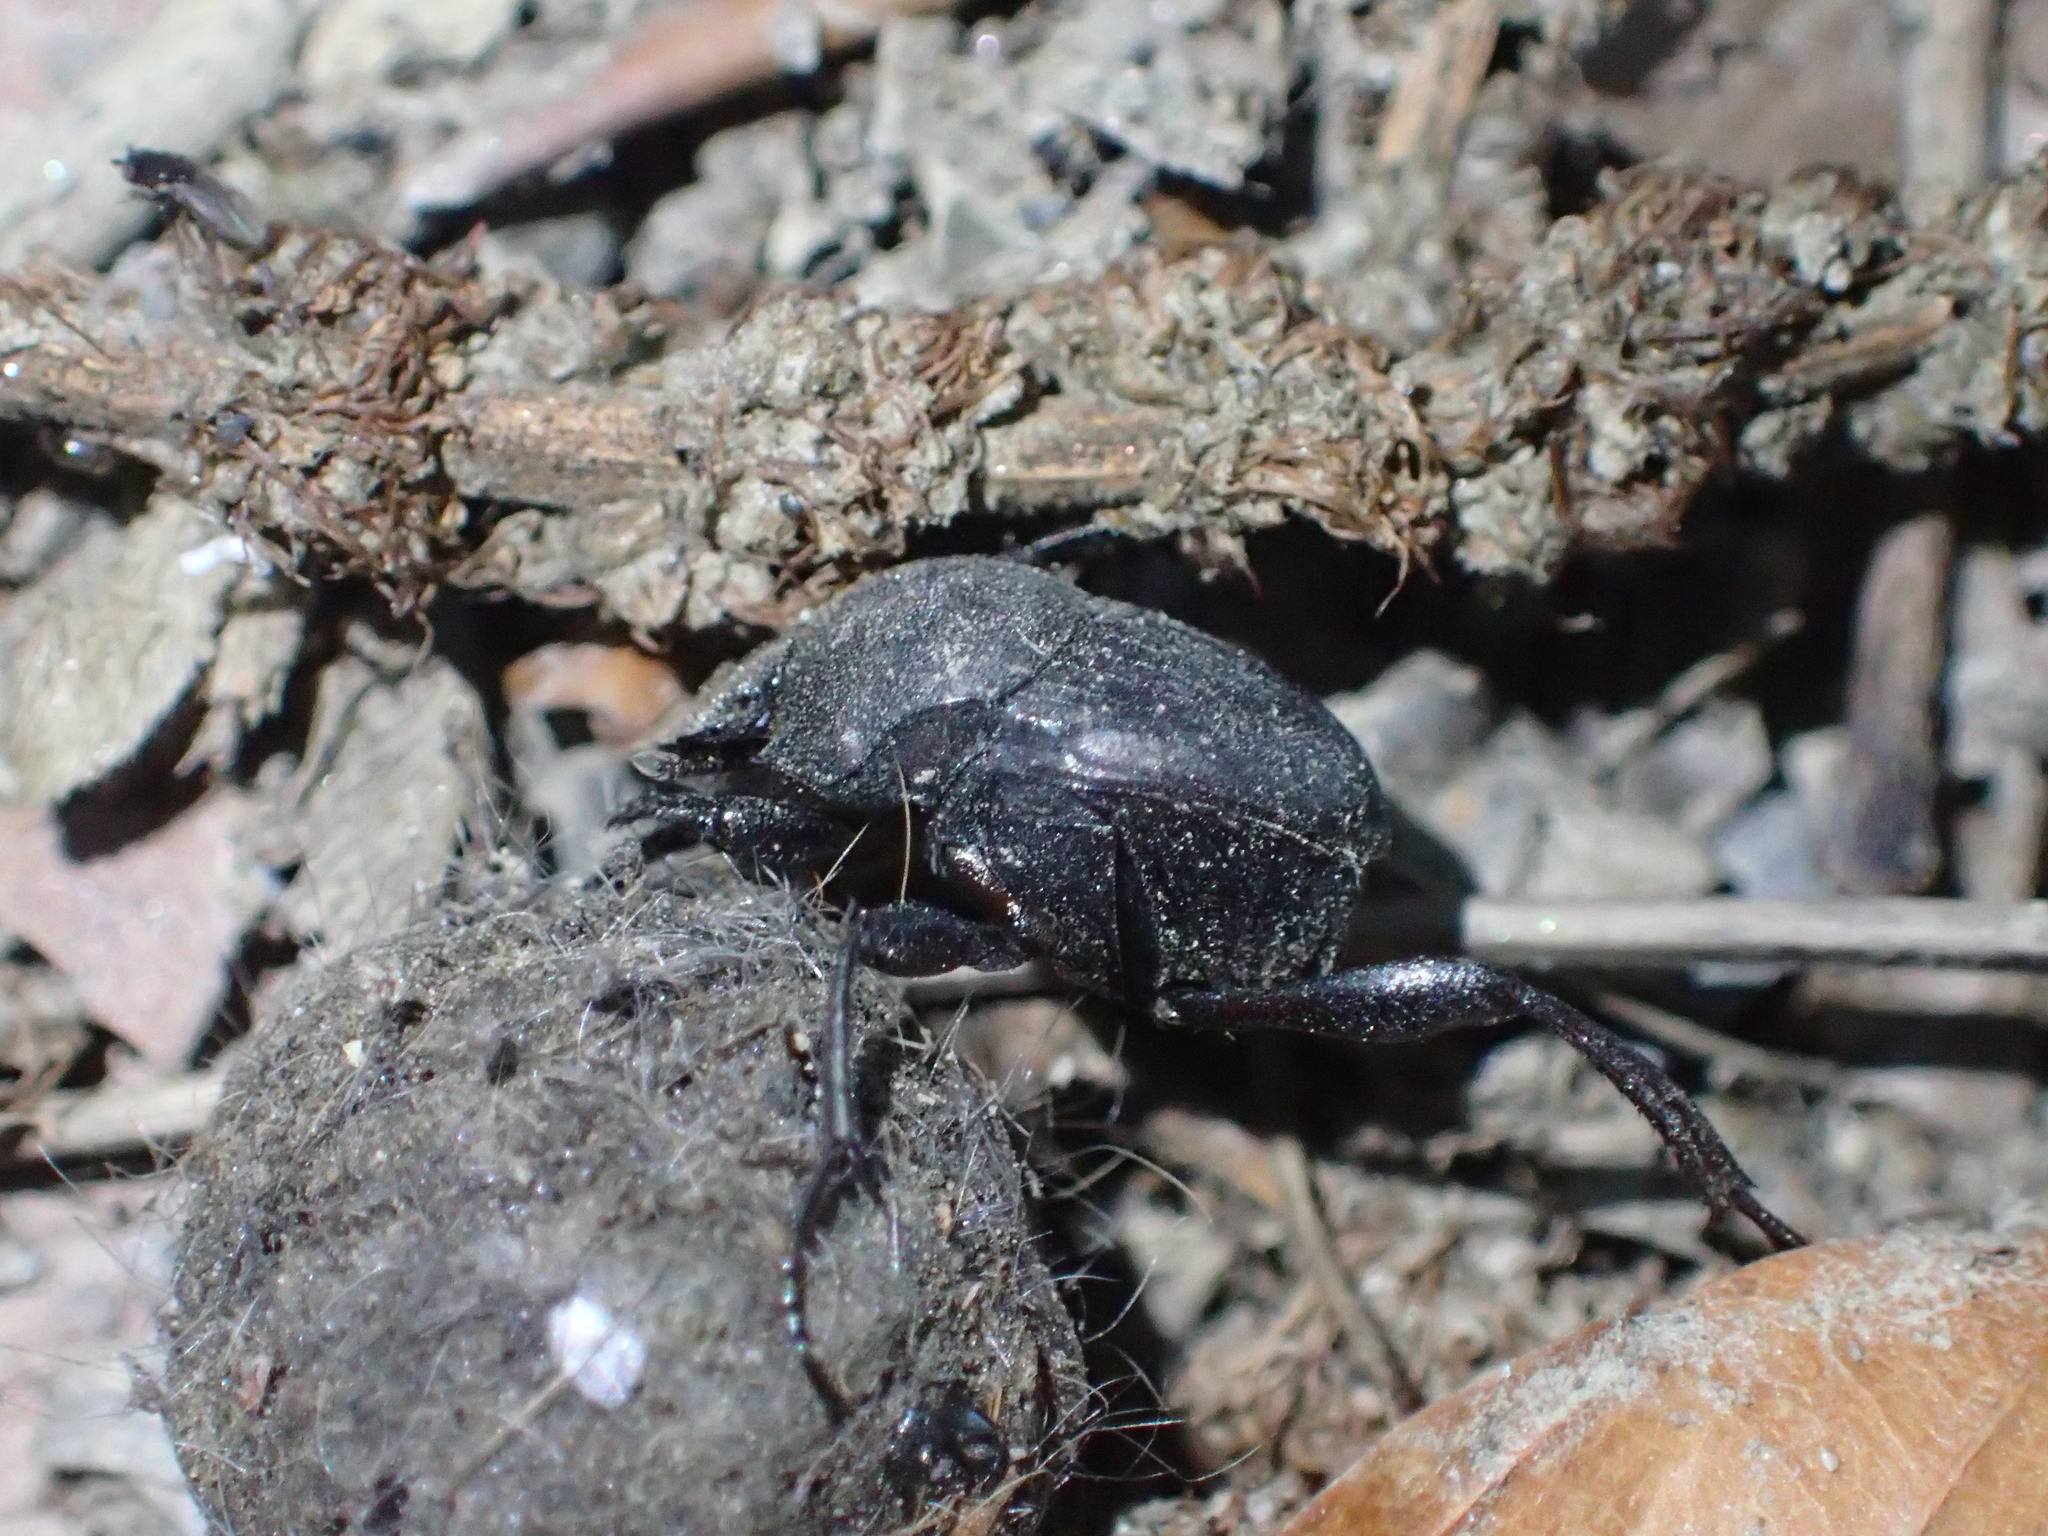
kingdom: Animalia
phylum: Arthropoda
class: Insecta
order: Coleoptera
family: Scarabaeidae
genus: Sisyphus
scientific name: Sisyphus schaefferi
